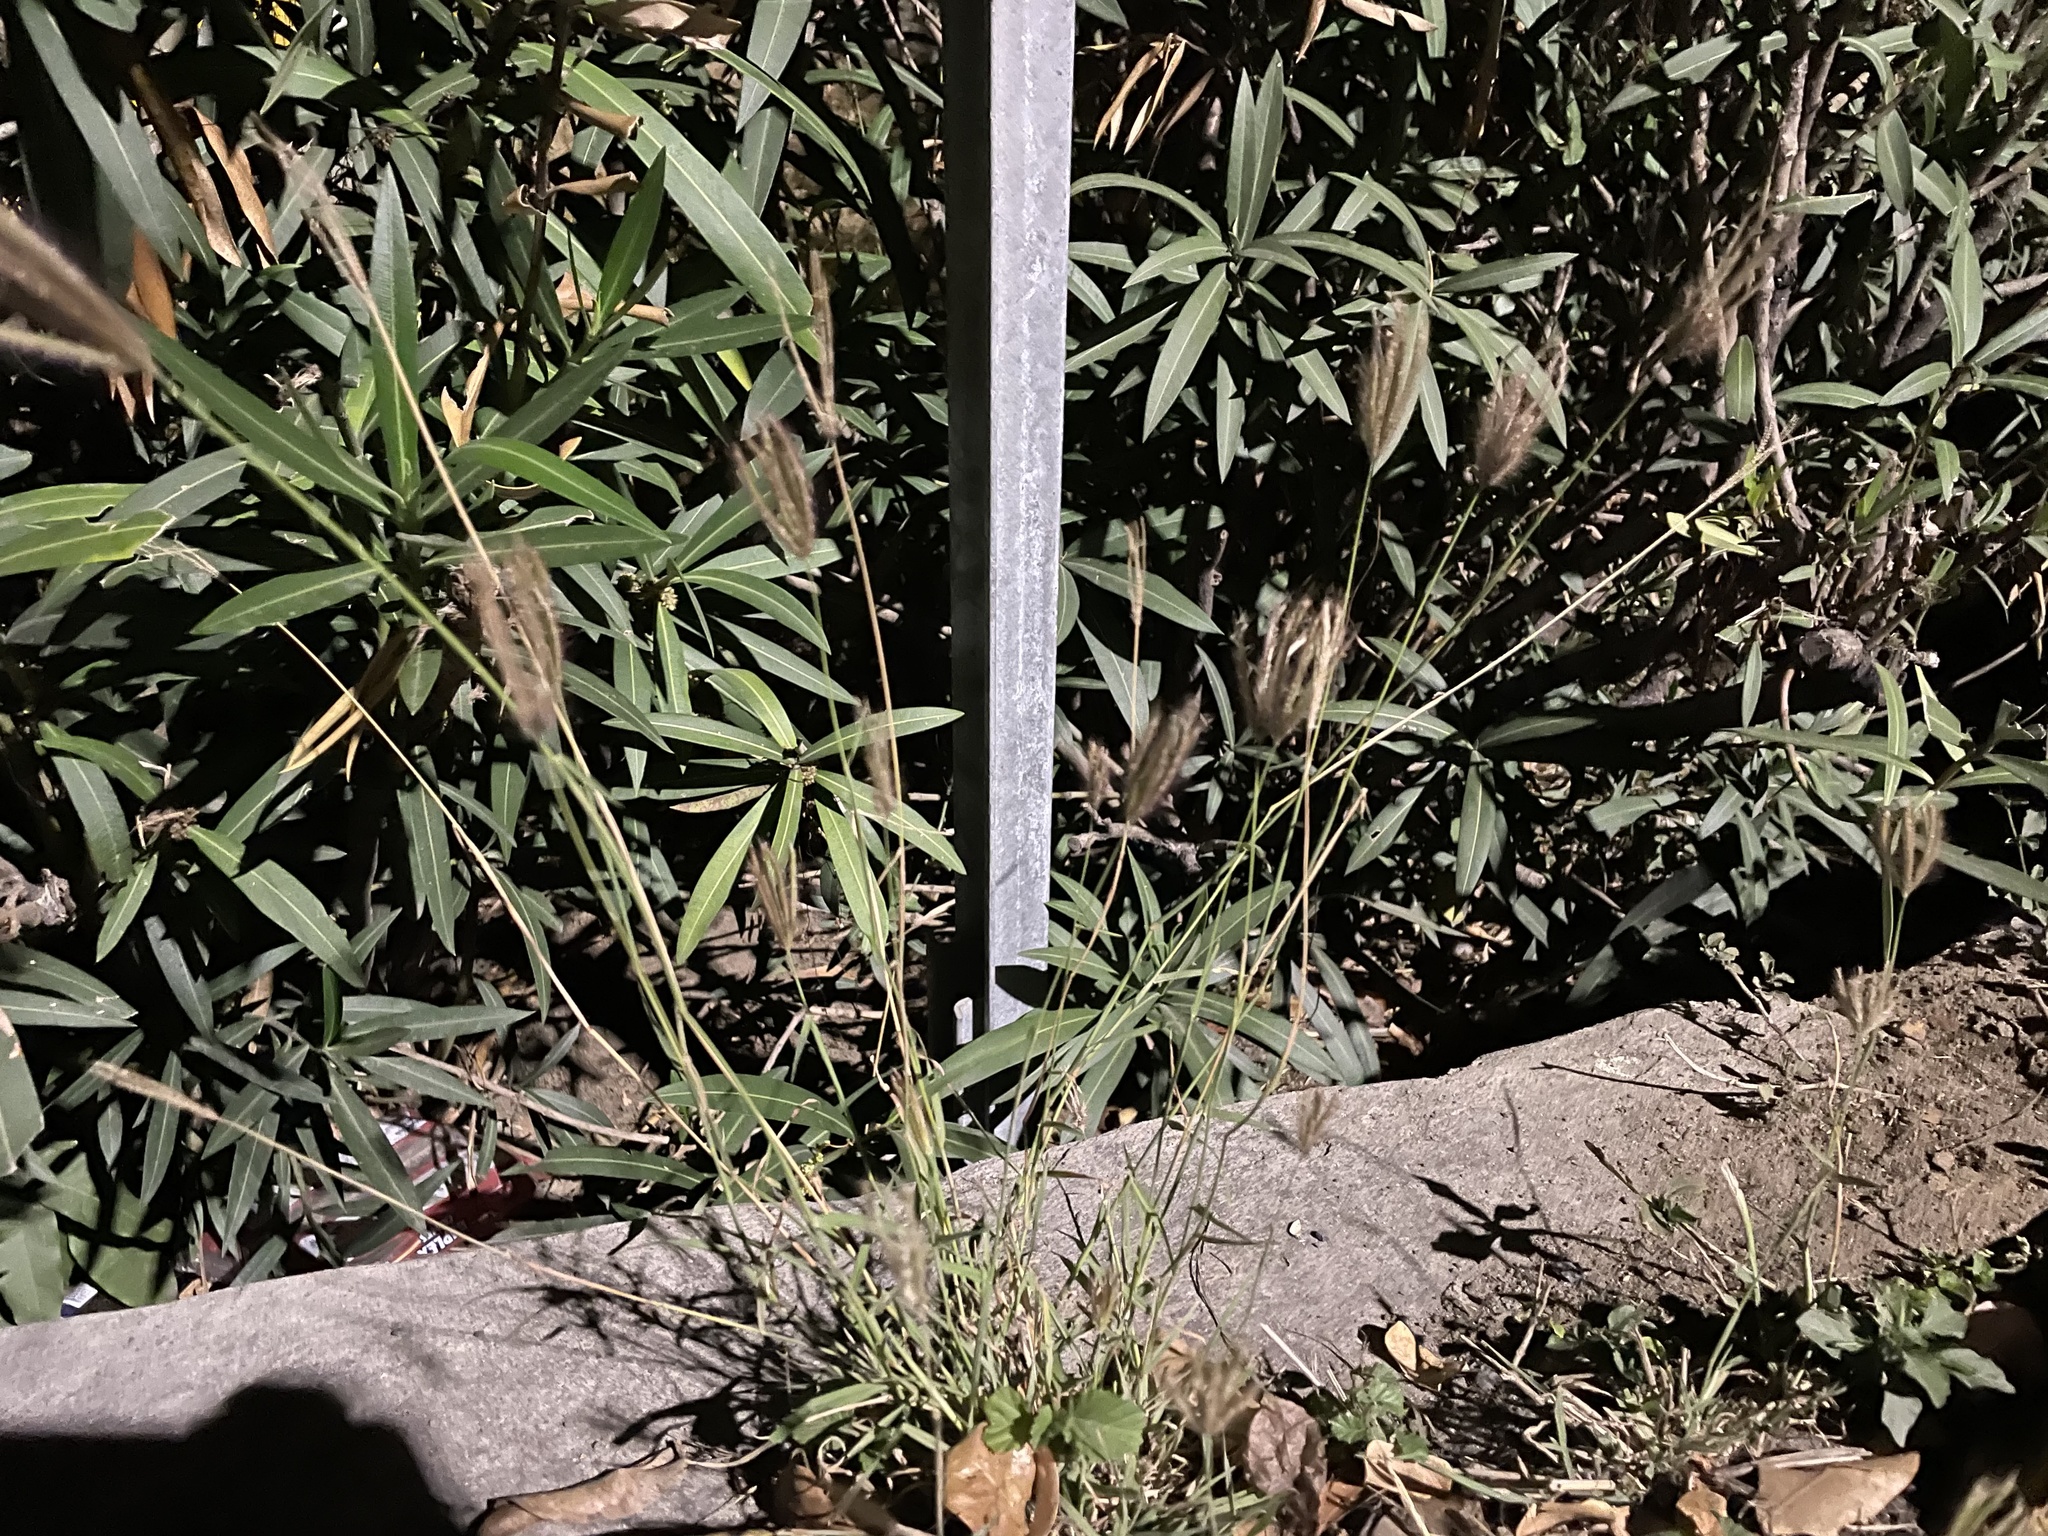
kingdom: Plantae
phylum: Tracheophyta
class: Liliopsida
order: Poales
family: Poaceae
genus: Chloris
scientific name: Chloris barbata
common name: Swollen fingergrass
